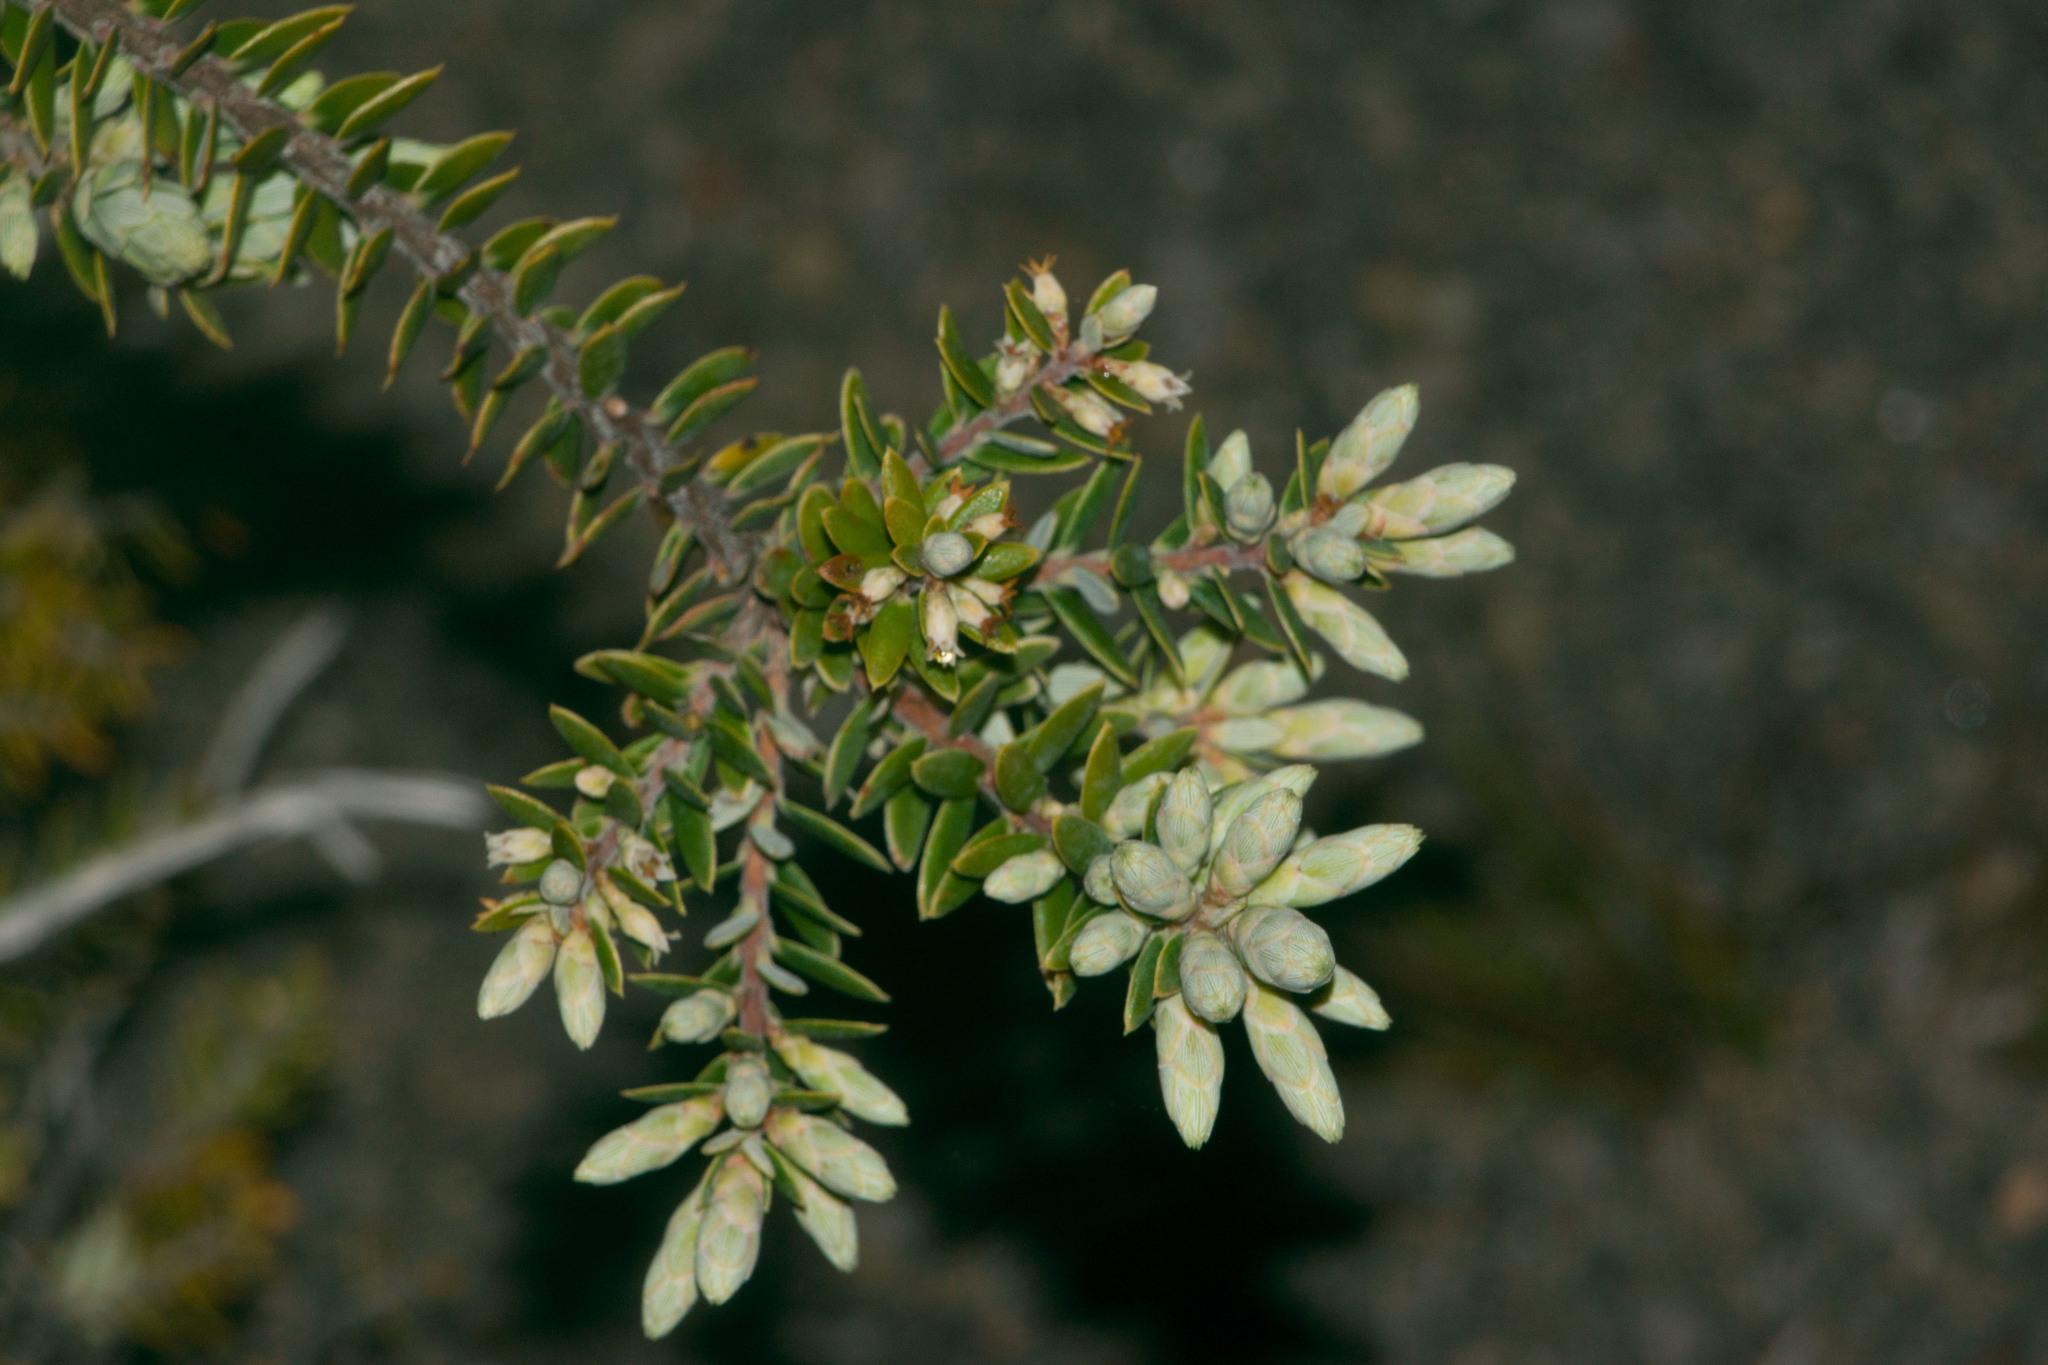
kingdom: Plantae
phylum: Tracheophyta
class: Magnoliopsida
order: Ericales
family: Ericaceae
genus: Leptecophylla
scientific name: Leptecophylla tameiameiae
